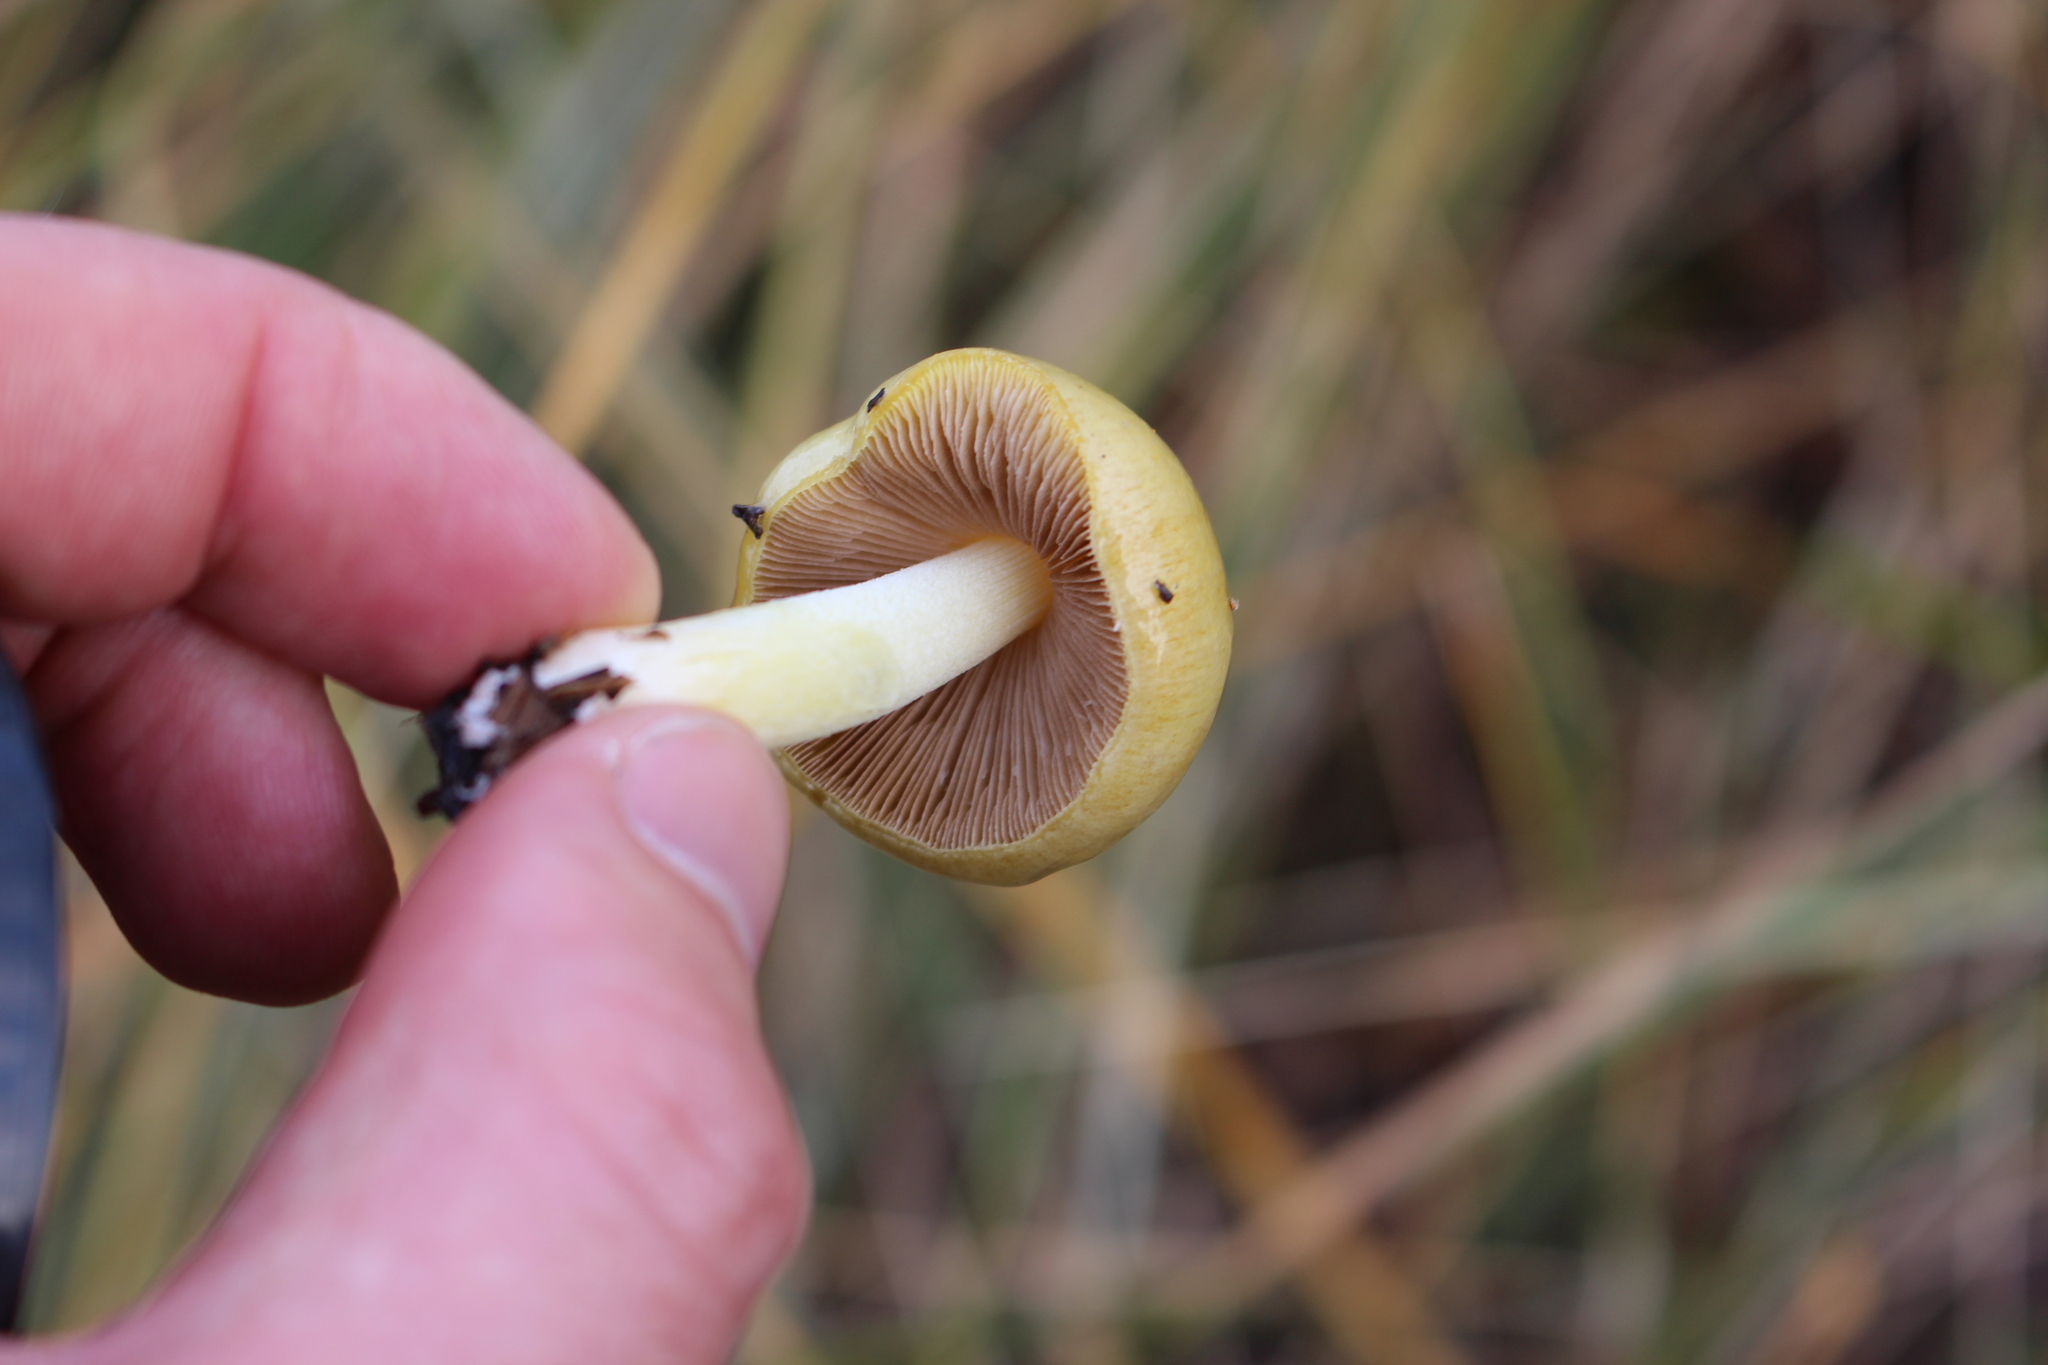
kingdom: Fungi
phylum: Basidiomycota
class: Agaricomycetes
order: Agaricales
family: Bolbitiaceae
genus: Bolbitius
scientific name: Bolbitius titubans
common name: Yellow fieldcap
